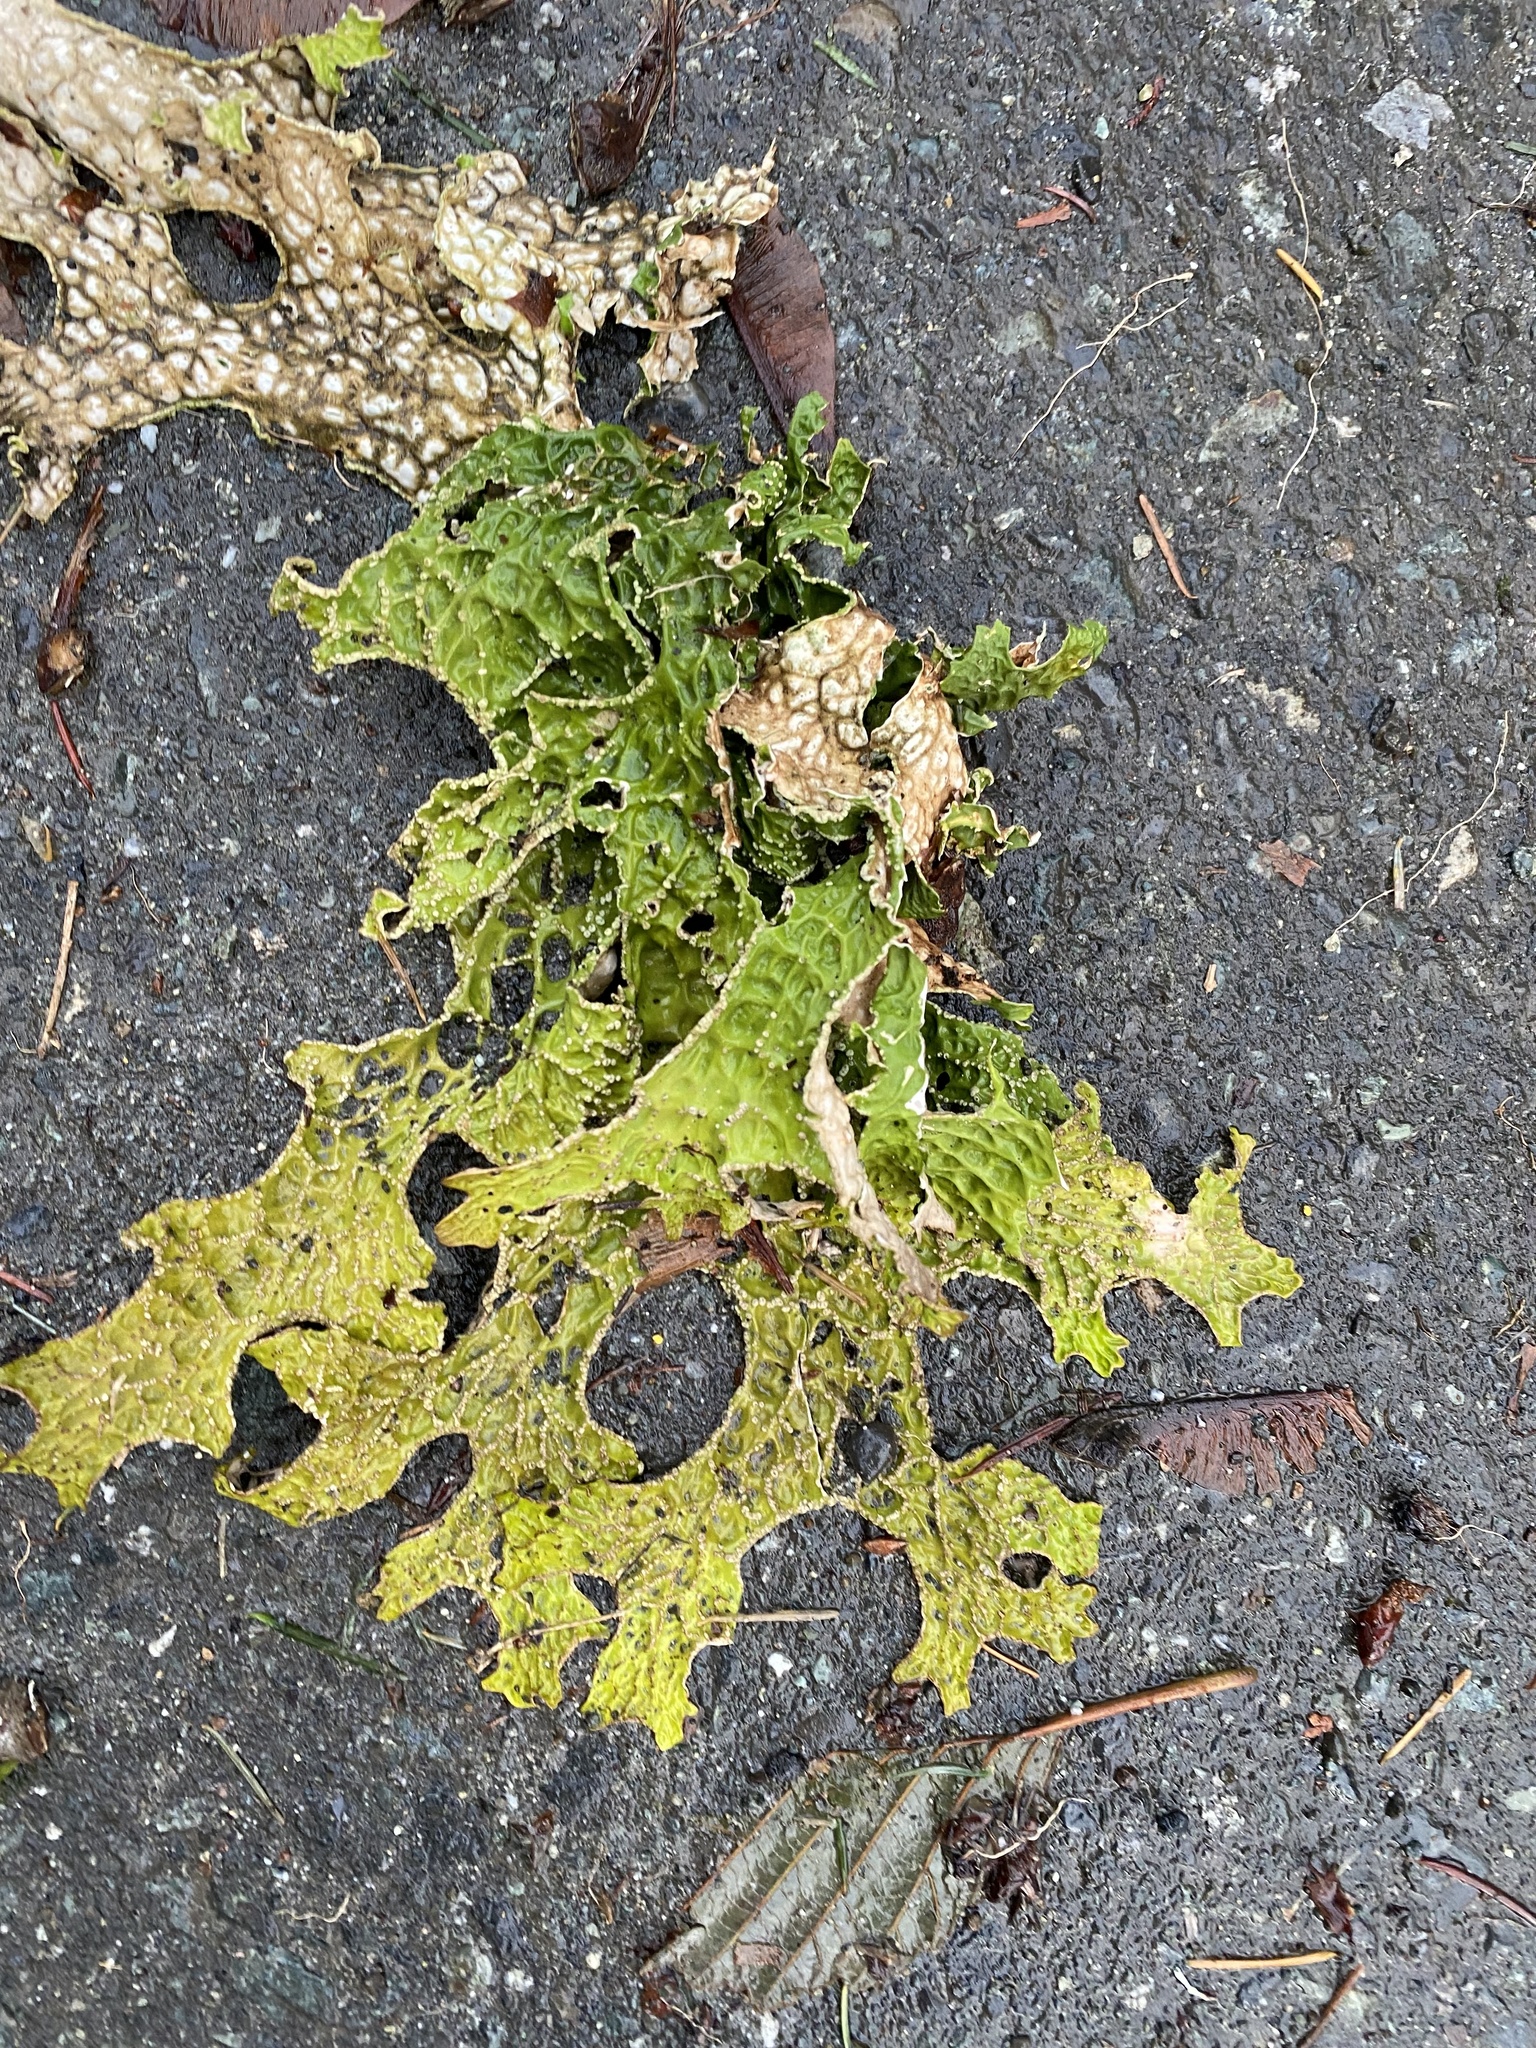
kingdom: Fungi
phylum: Ascomycota
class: Lecanoromycetes
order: Peltigerales
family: Lobariaceae
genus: Lobaria
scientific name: Lobaria pulmonaria
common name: Lungwort
